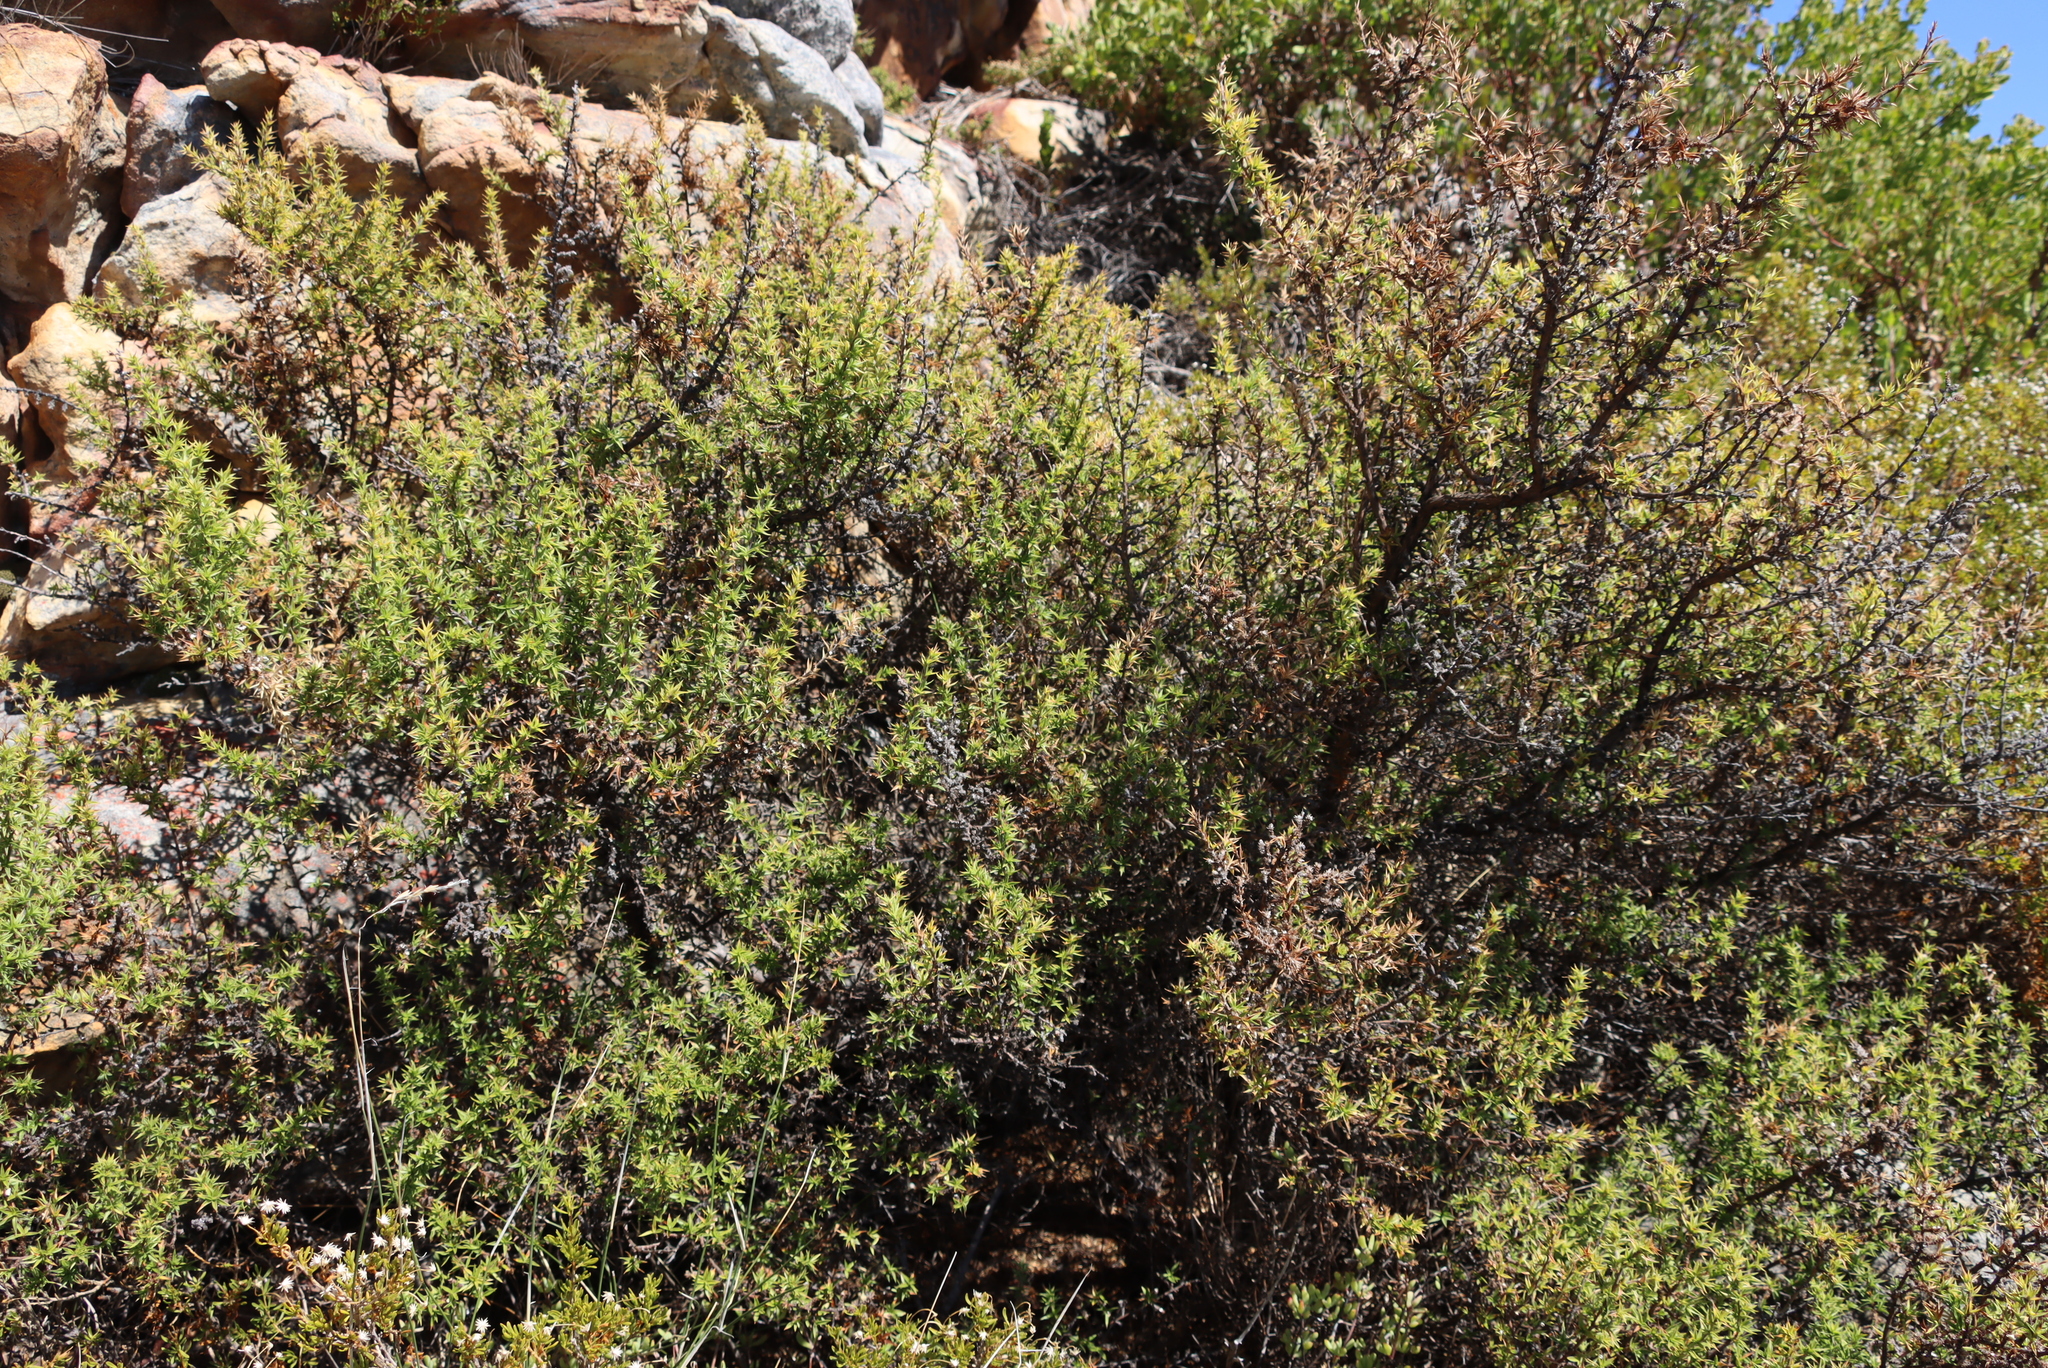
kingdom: Plantae
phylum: Tracheophyta
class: Magnoliopsida
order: Rosales
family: Rosaceae
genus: Cliffortia
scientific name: Cliffortia ruscifolia
